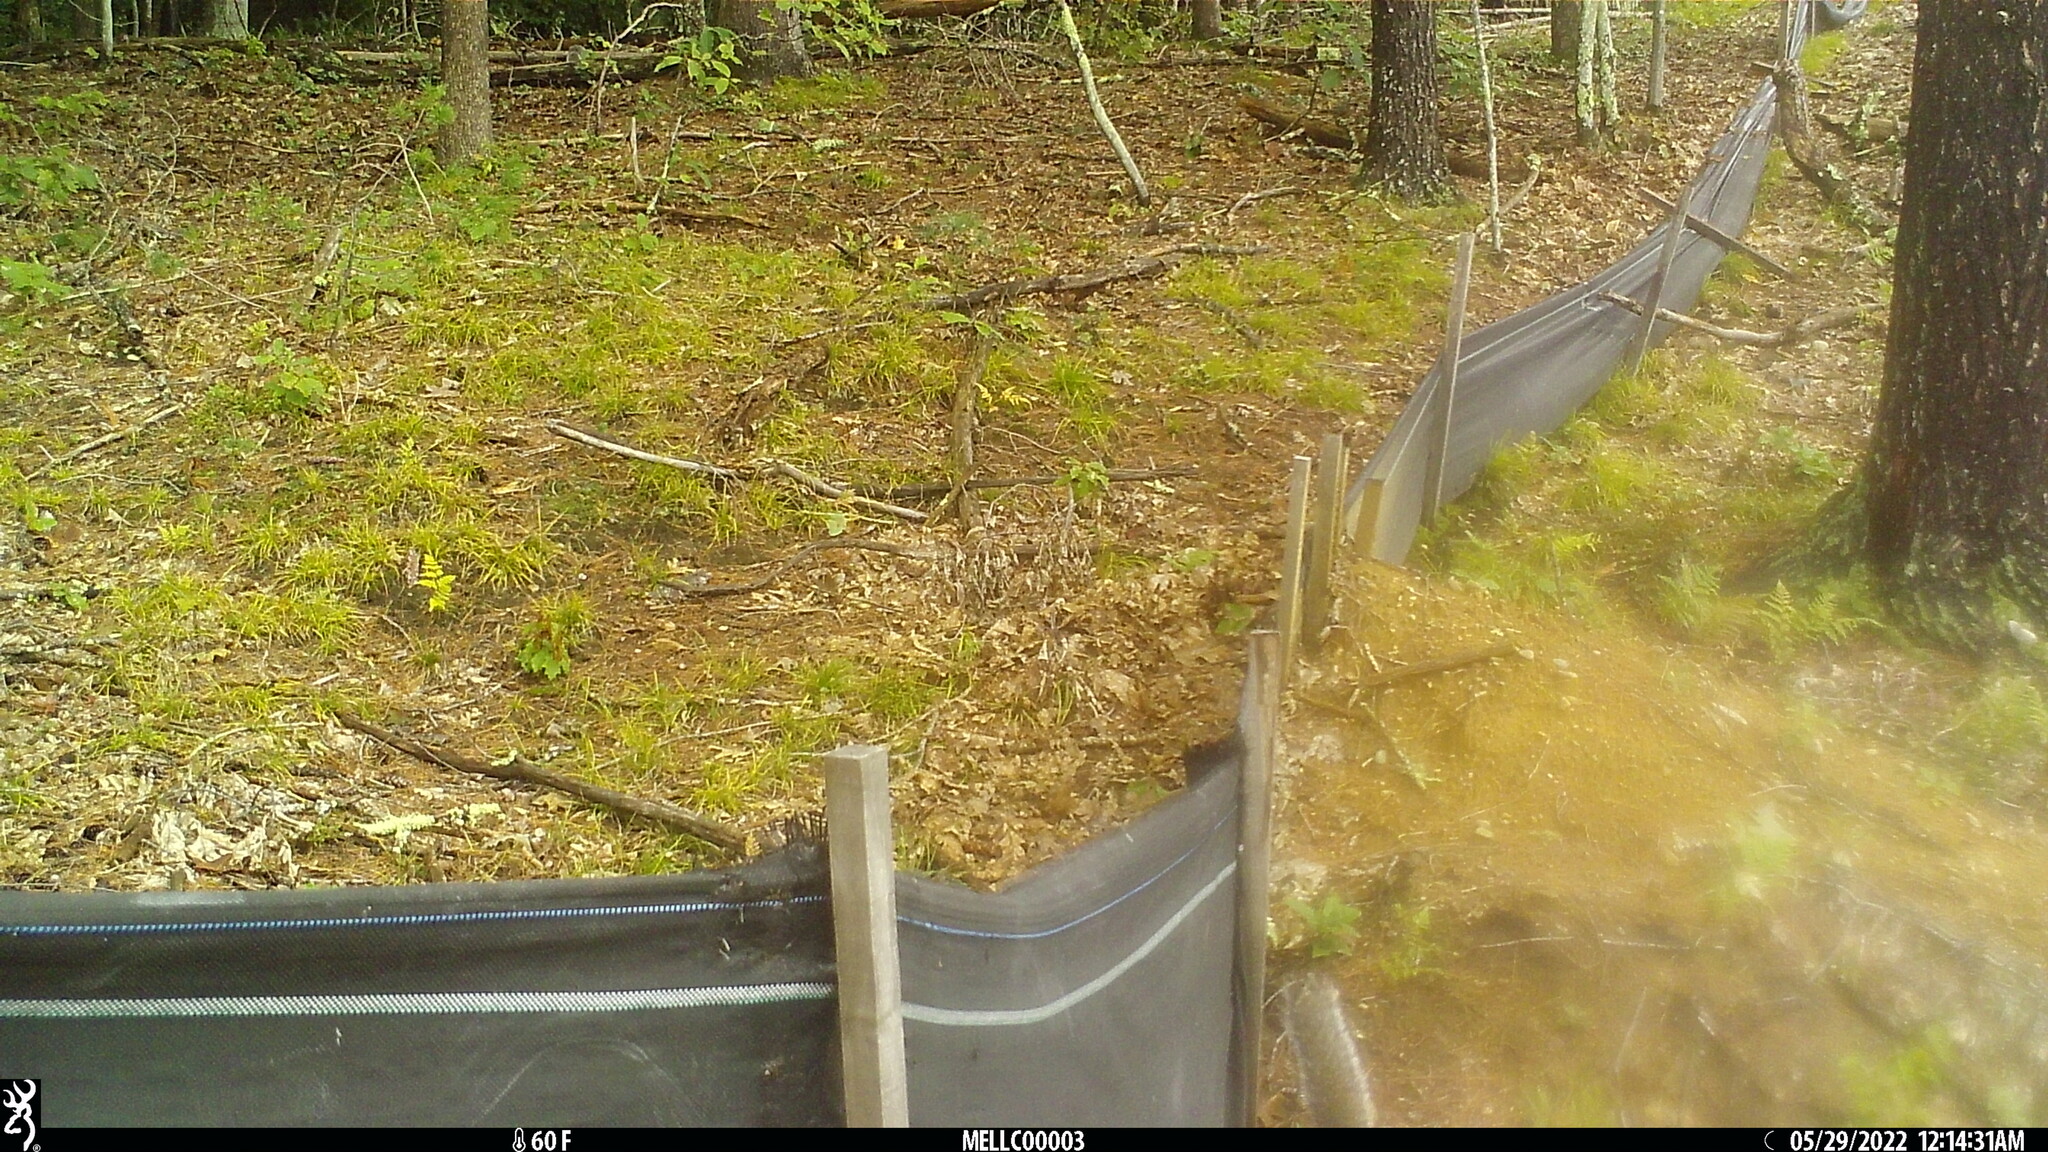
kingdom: Animalia
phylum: Chordata
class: Mammalia
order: Rodentia
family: Sciuridae
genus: Sciurus
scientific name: Sciurus carolinensis
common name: Eastern gray squirrel
